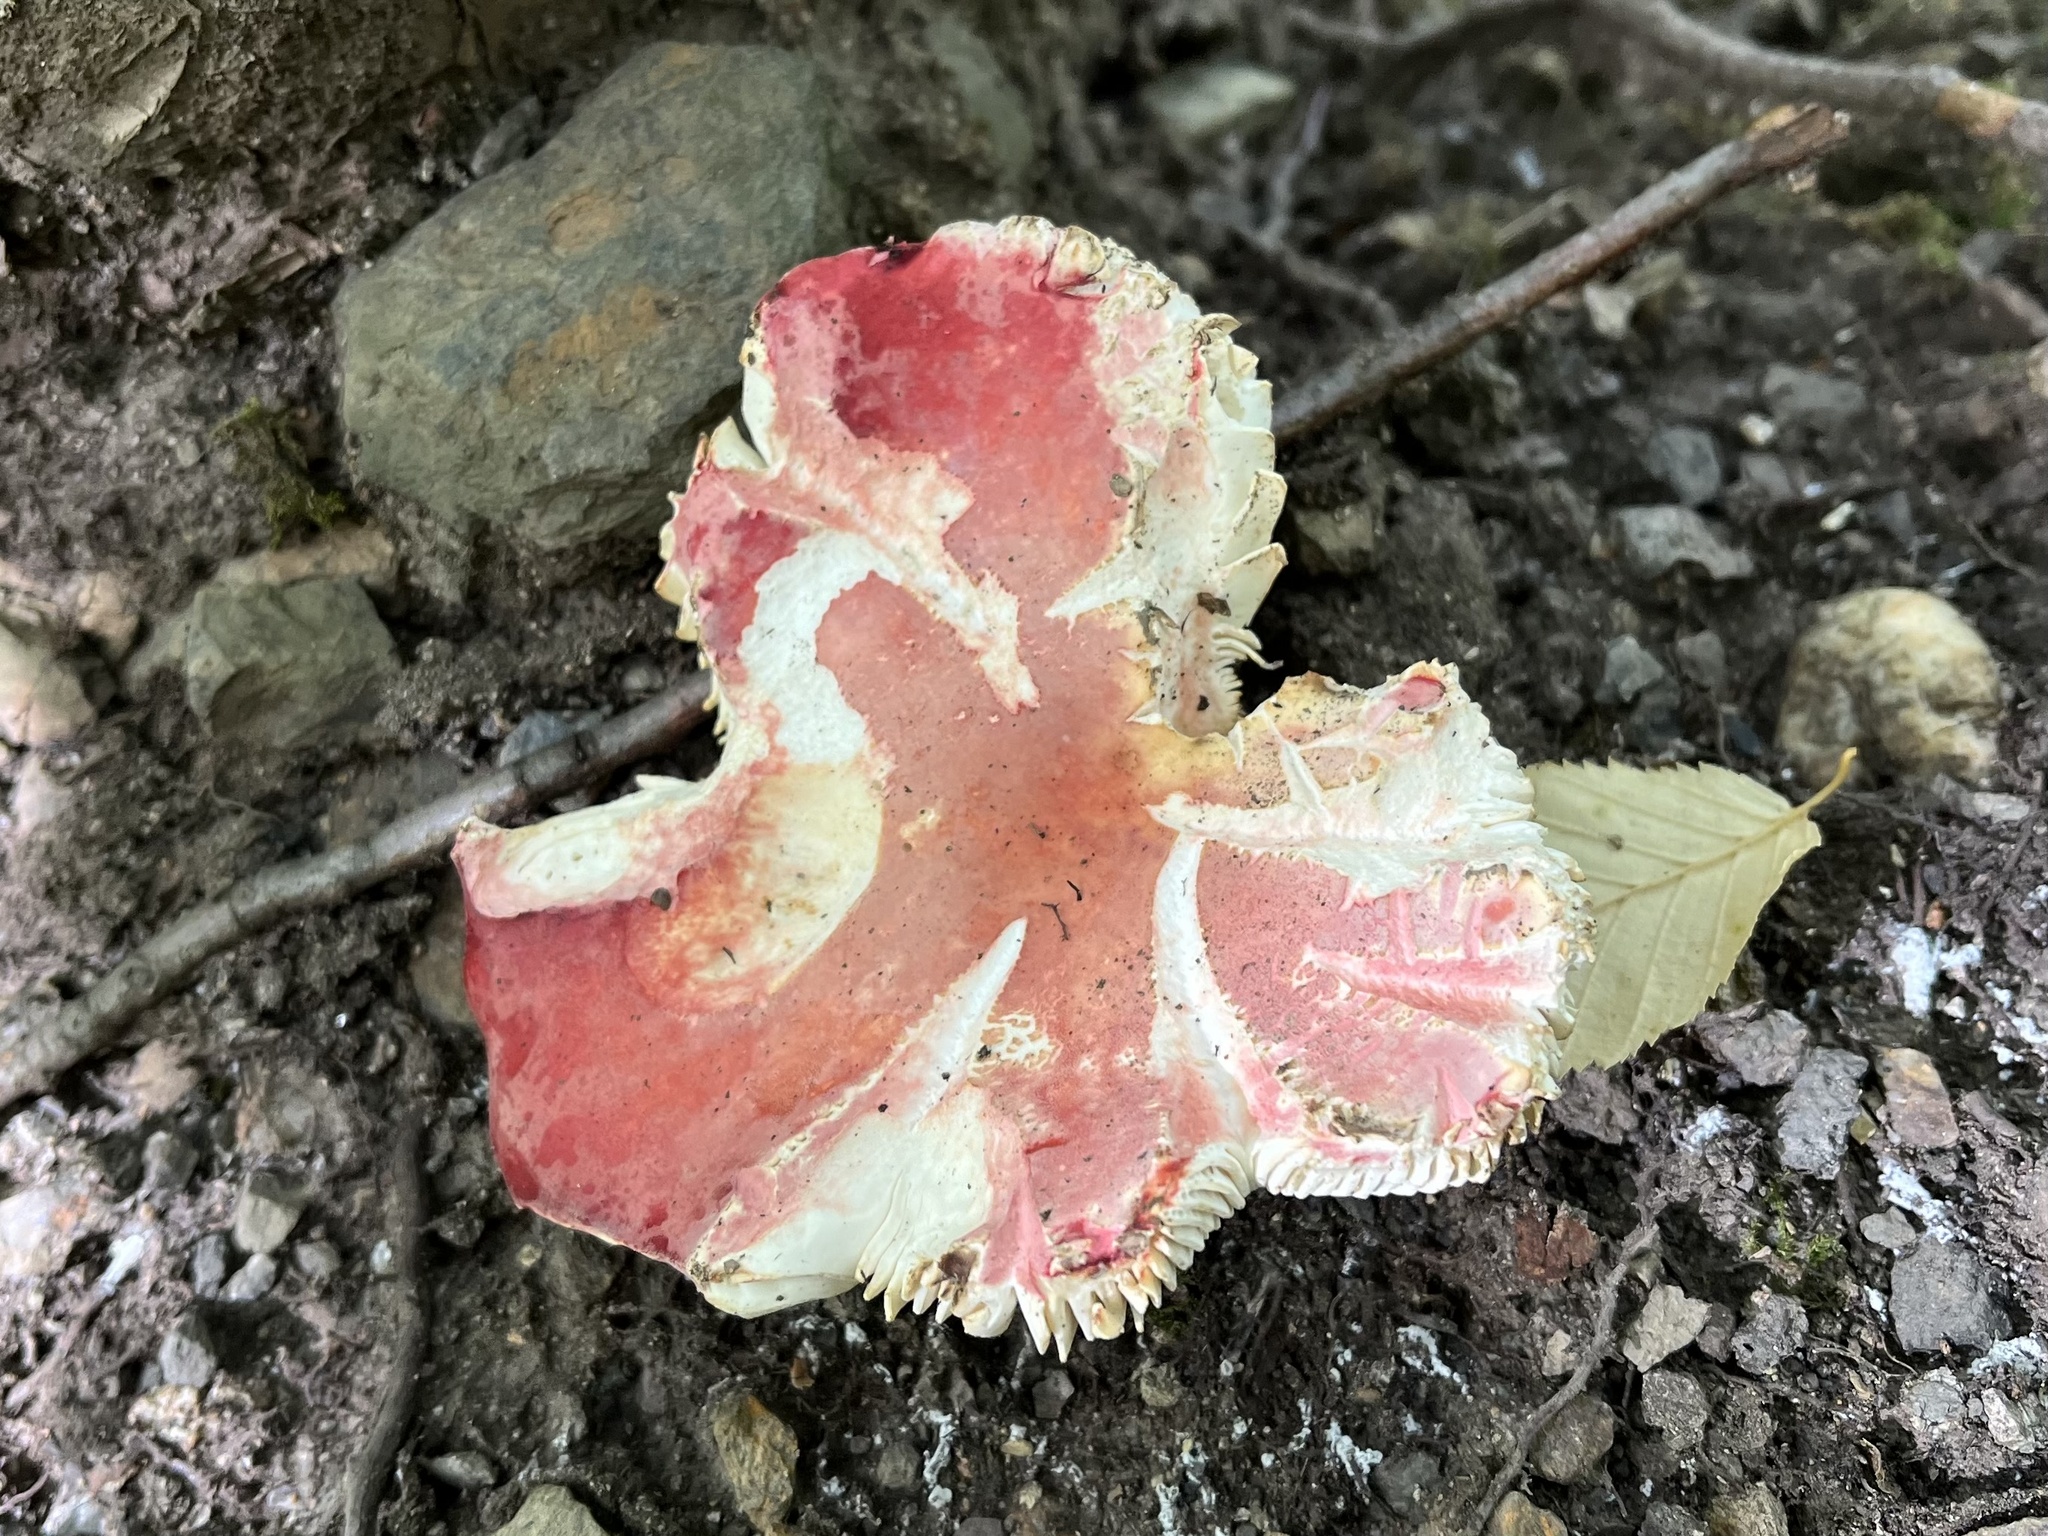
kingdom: Fungi
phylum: Basidiomycota
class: Agaricomycetes
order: Russulales
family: Russulaceae
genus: Russula
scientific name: Russula sanguinea
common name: Bloody brittlegill
